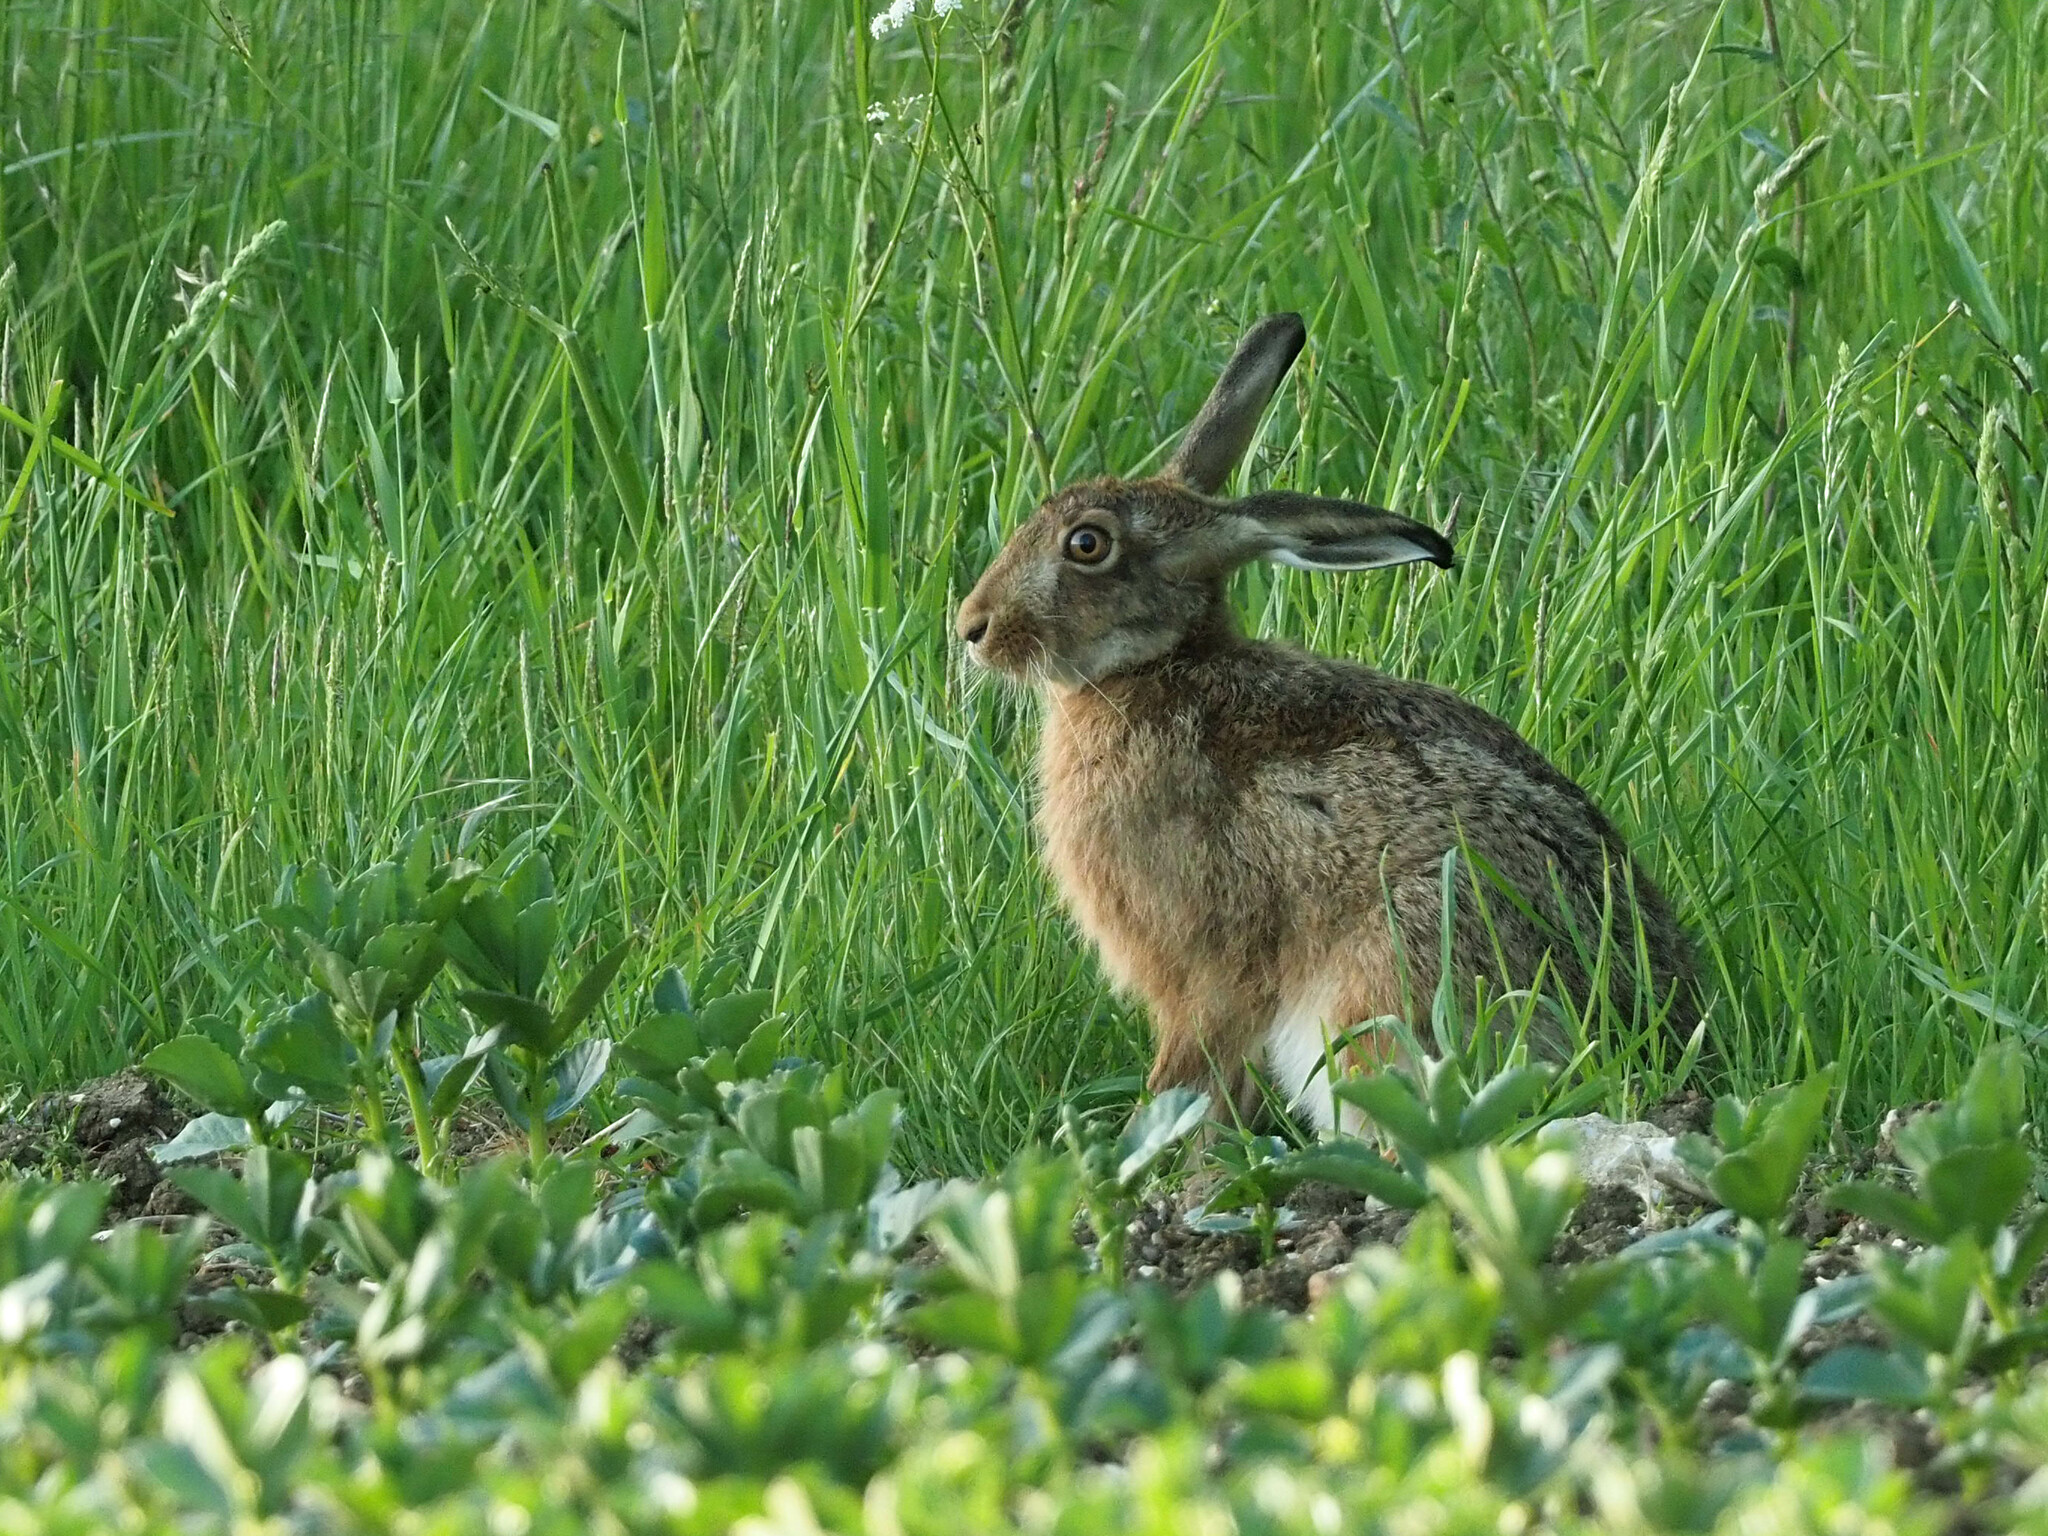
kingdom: Animalia
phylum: Chordata
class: Mammalia
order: Lagomorpha
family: Leporidae
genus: Lepus
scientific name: Lepus europaeus
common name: European hare
